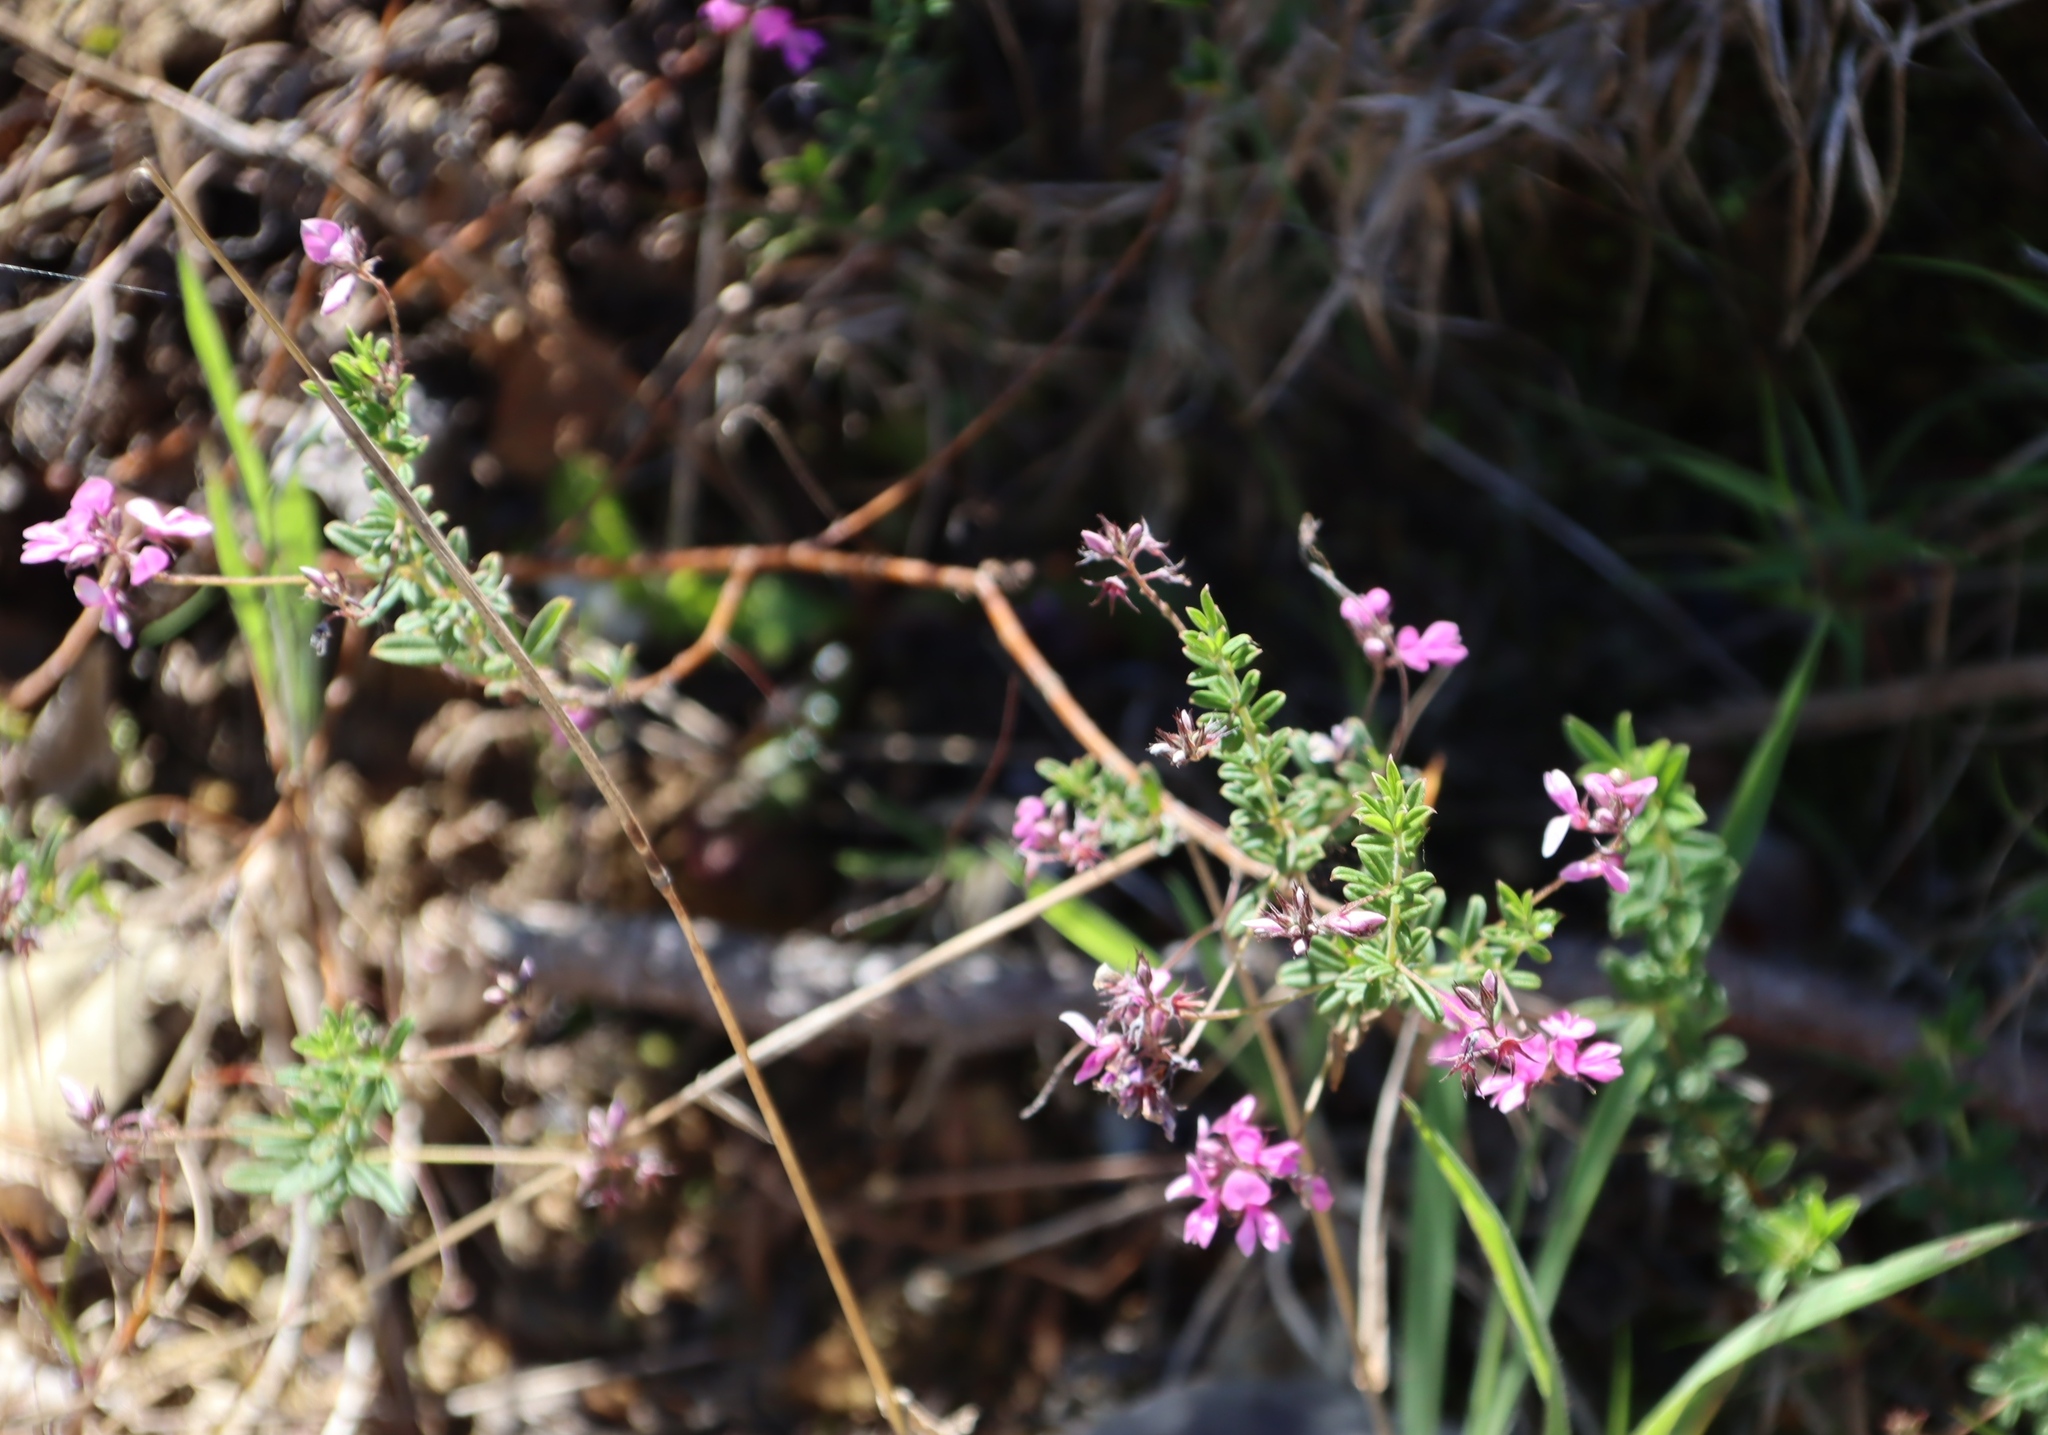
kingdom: Plantae
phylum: Tracheophyta
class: Magnoliopsida
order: Fabales
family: Fabaceae
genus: Indigofera
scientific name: Indigofera filiformis
